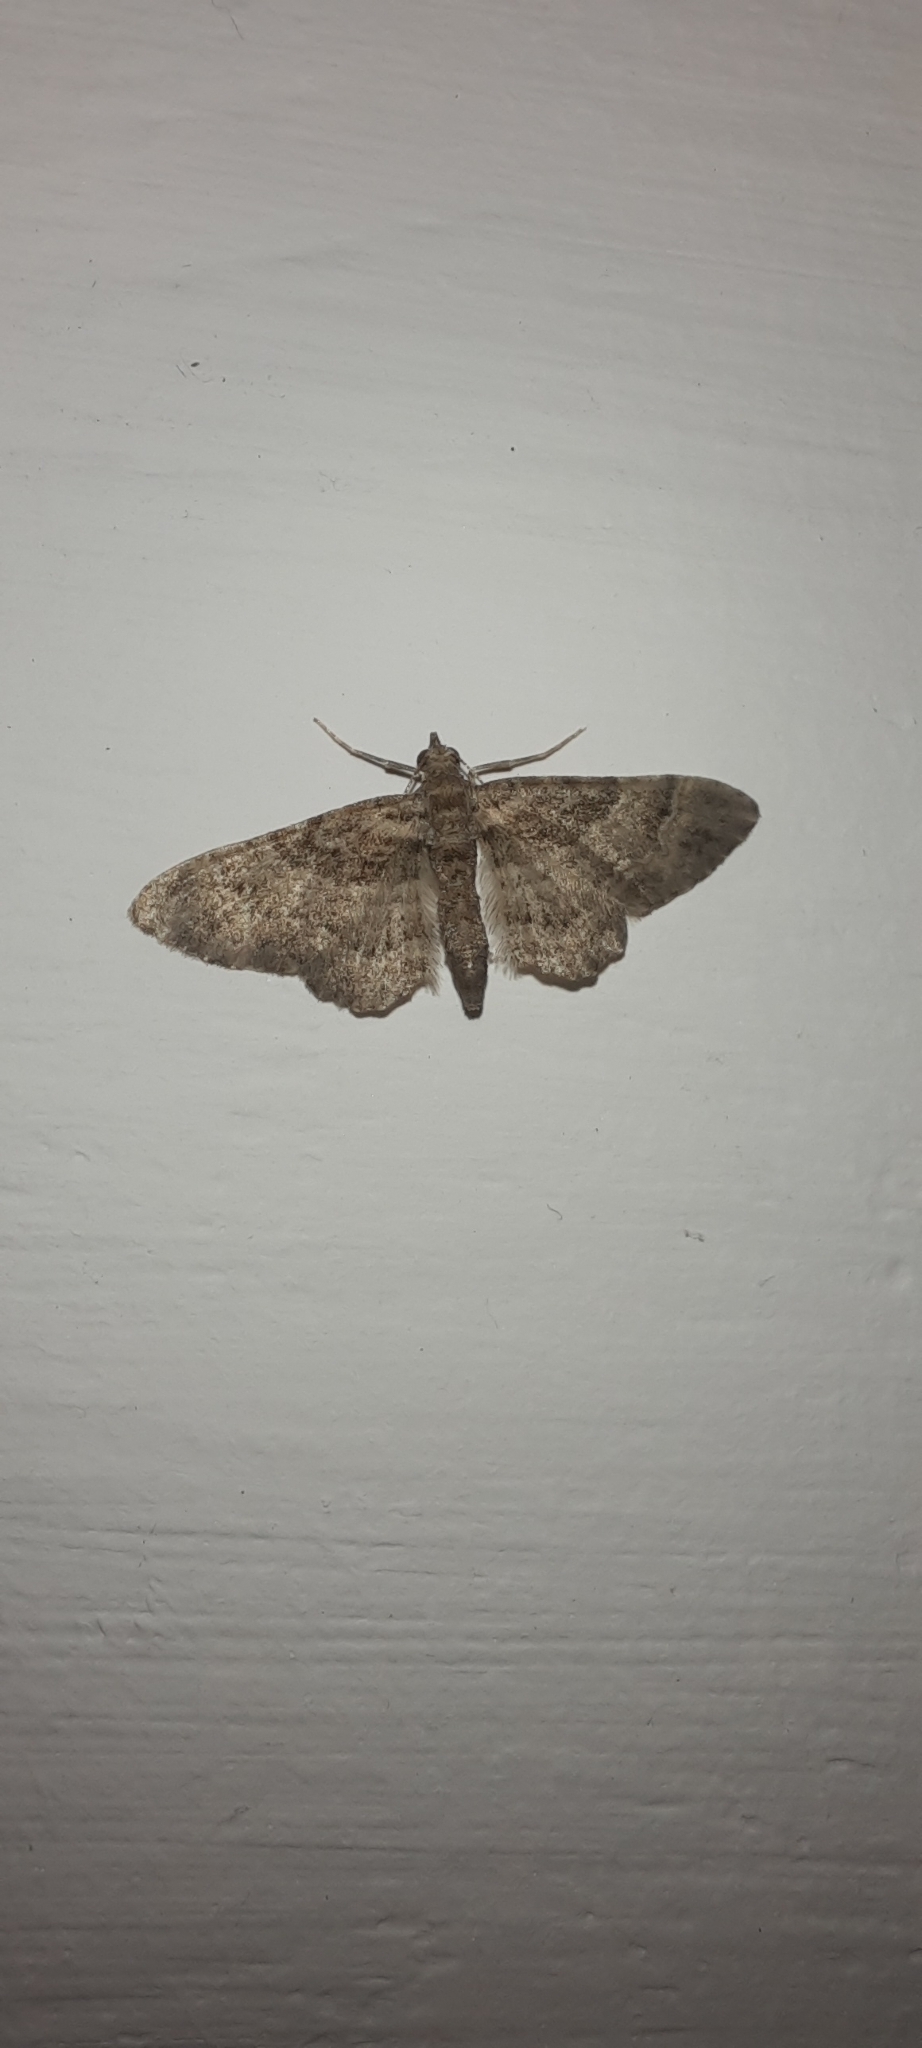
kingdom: Animalia
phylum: Arthropoda
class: Insecta
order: Lepidoptera
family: Geometridae
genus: Gymnoscelis
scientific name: Gymnoscelis rufifasciata
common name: Double-striped pug
